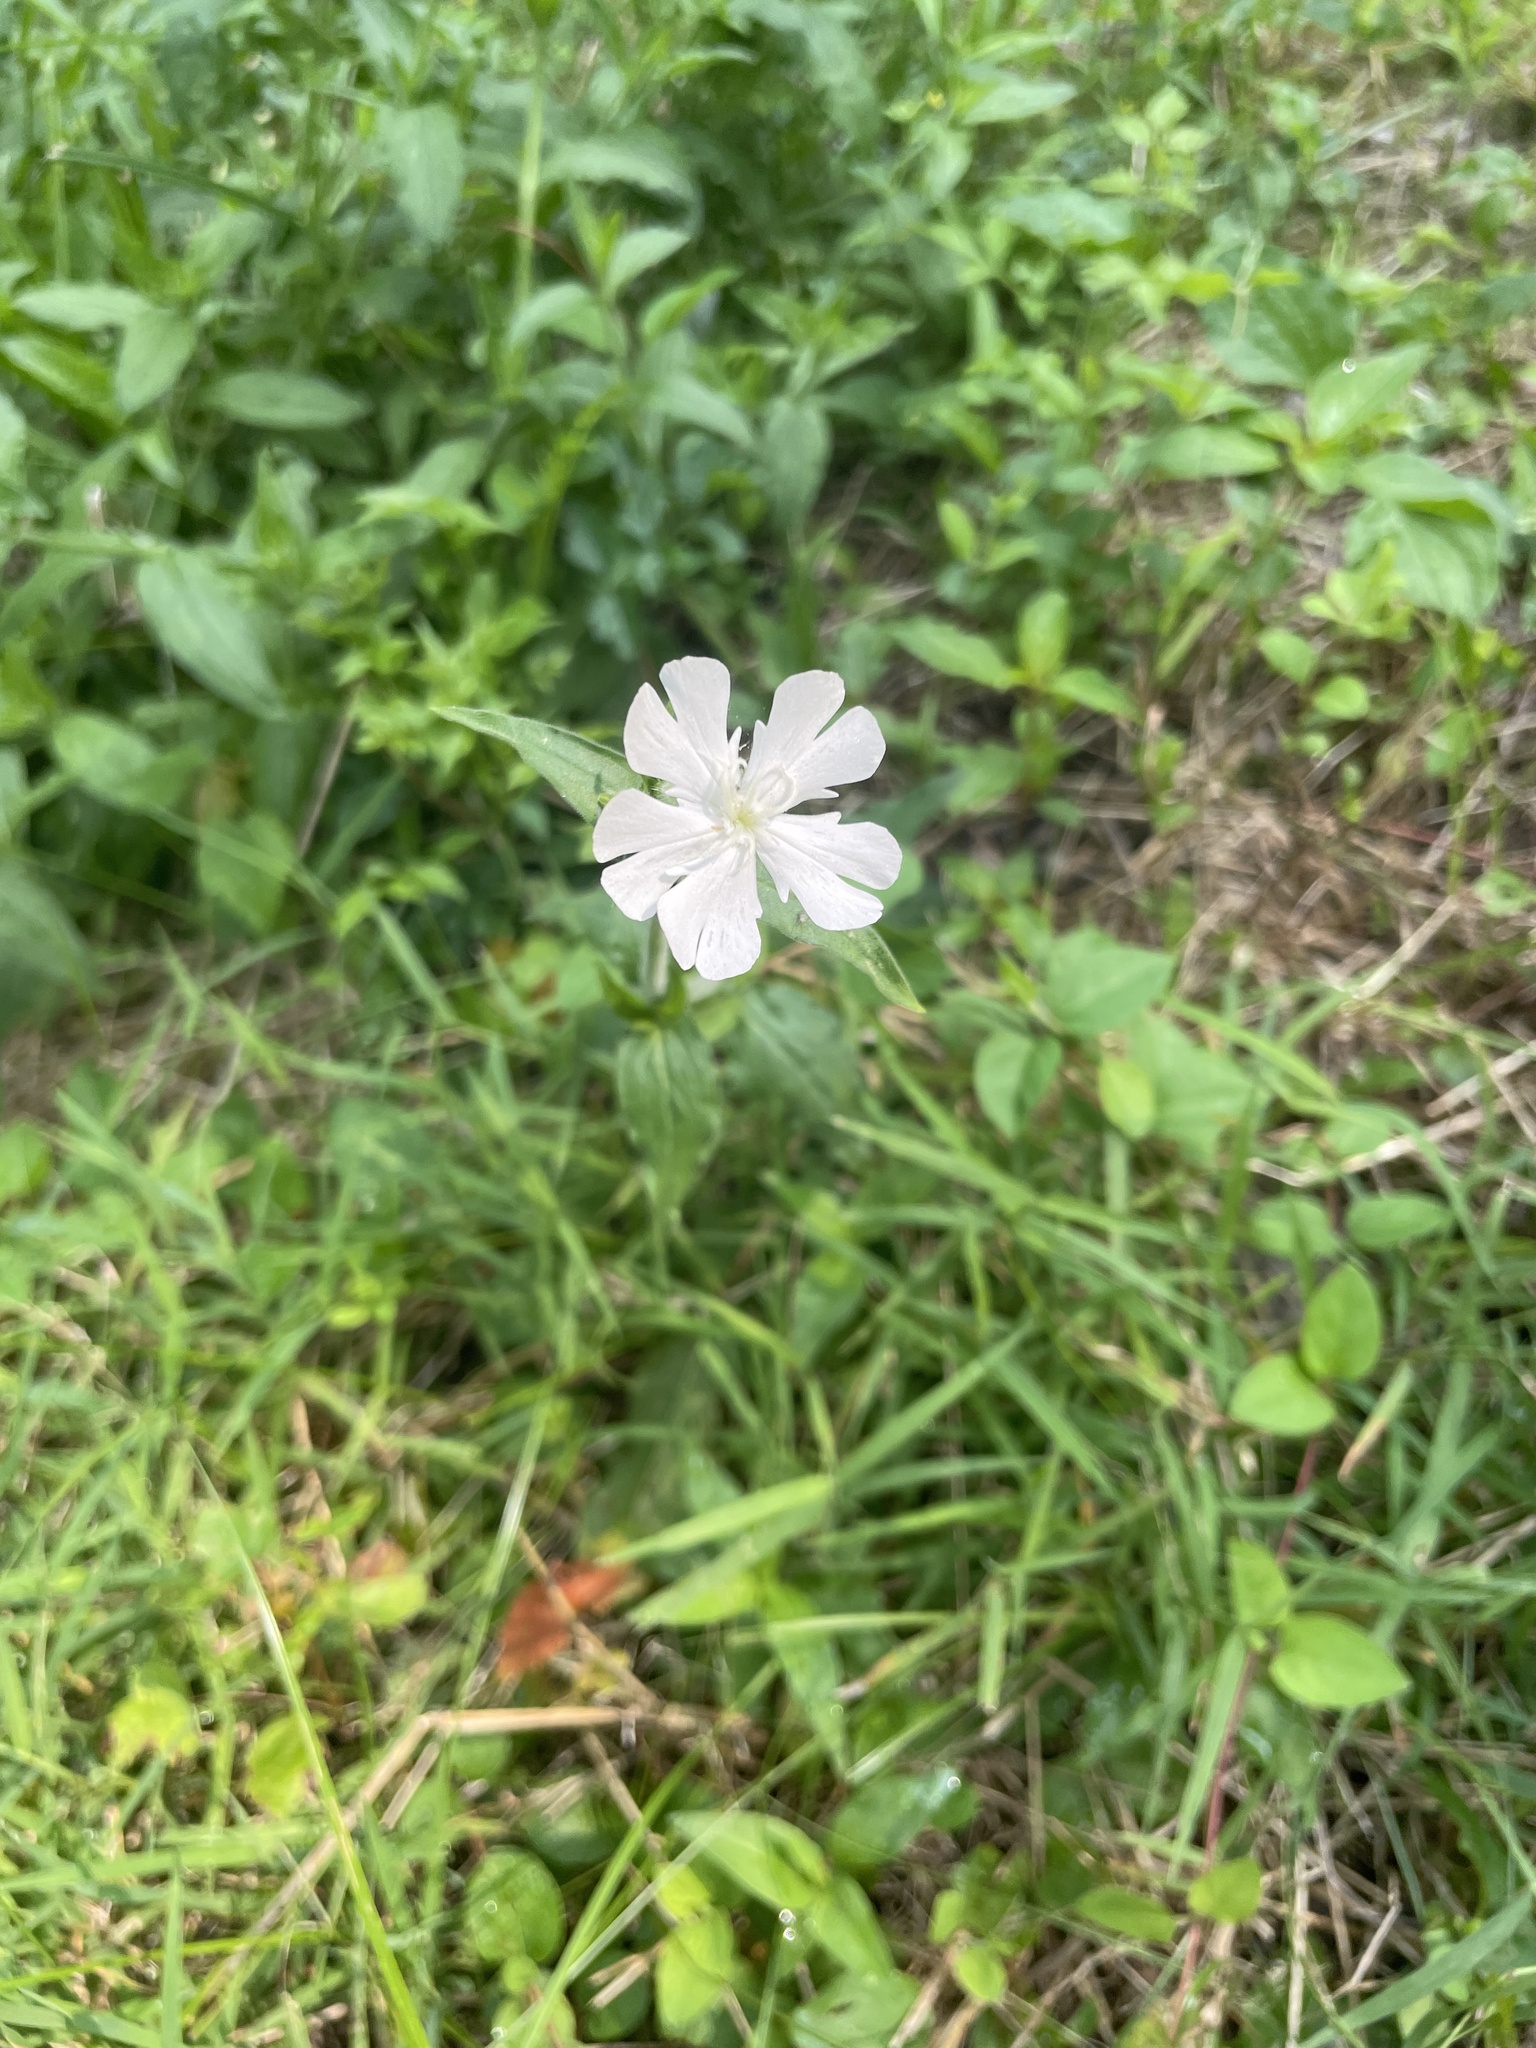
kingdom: Plantae
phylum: Tracheophyta
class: Magnoliopsida
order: Caryophyllales
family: Caryophyllaceae
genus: Silene
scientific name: Silene latifolia
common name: White campion
